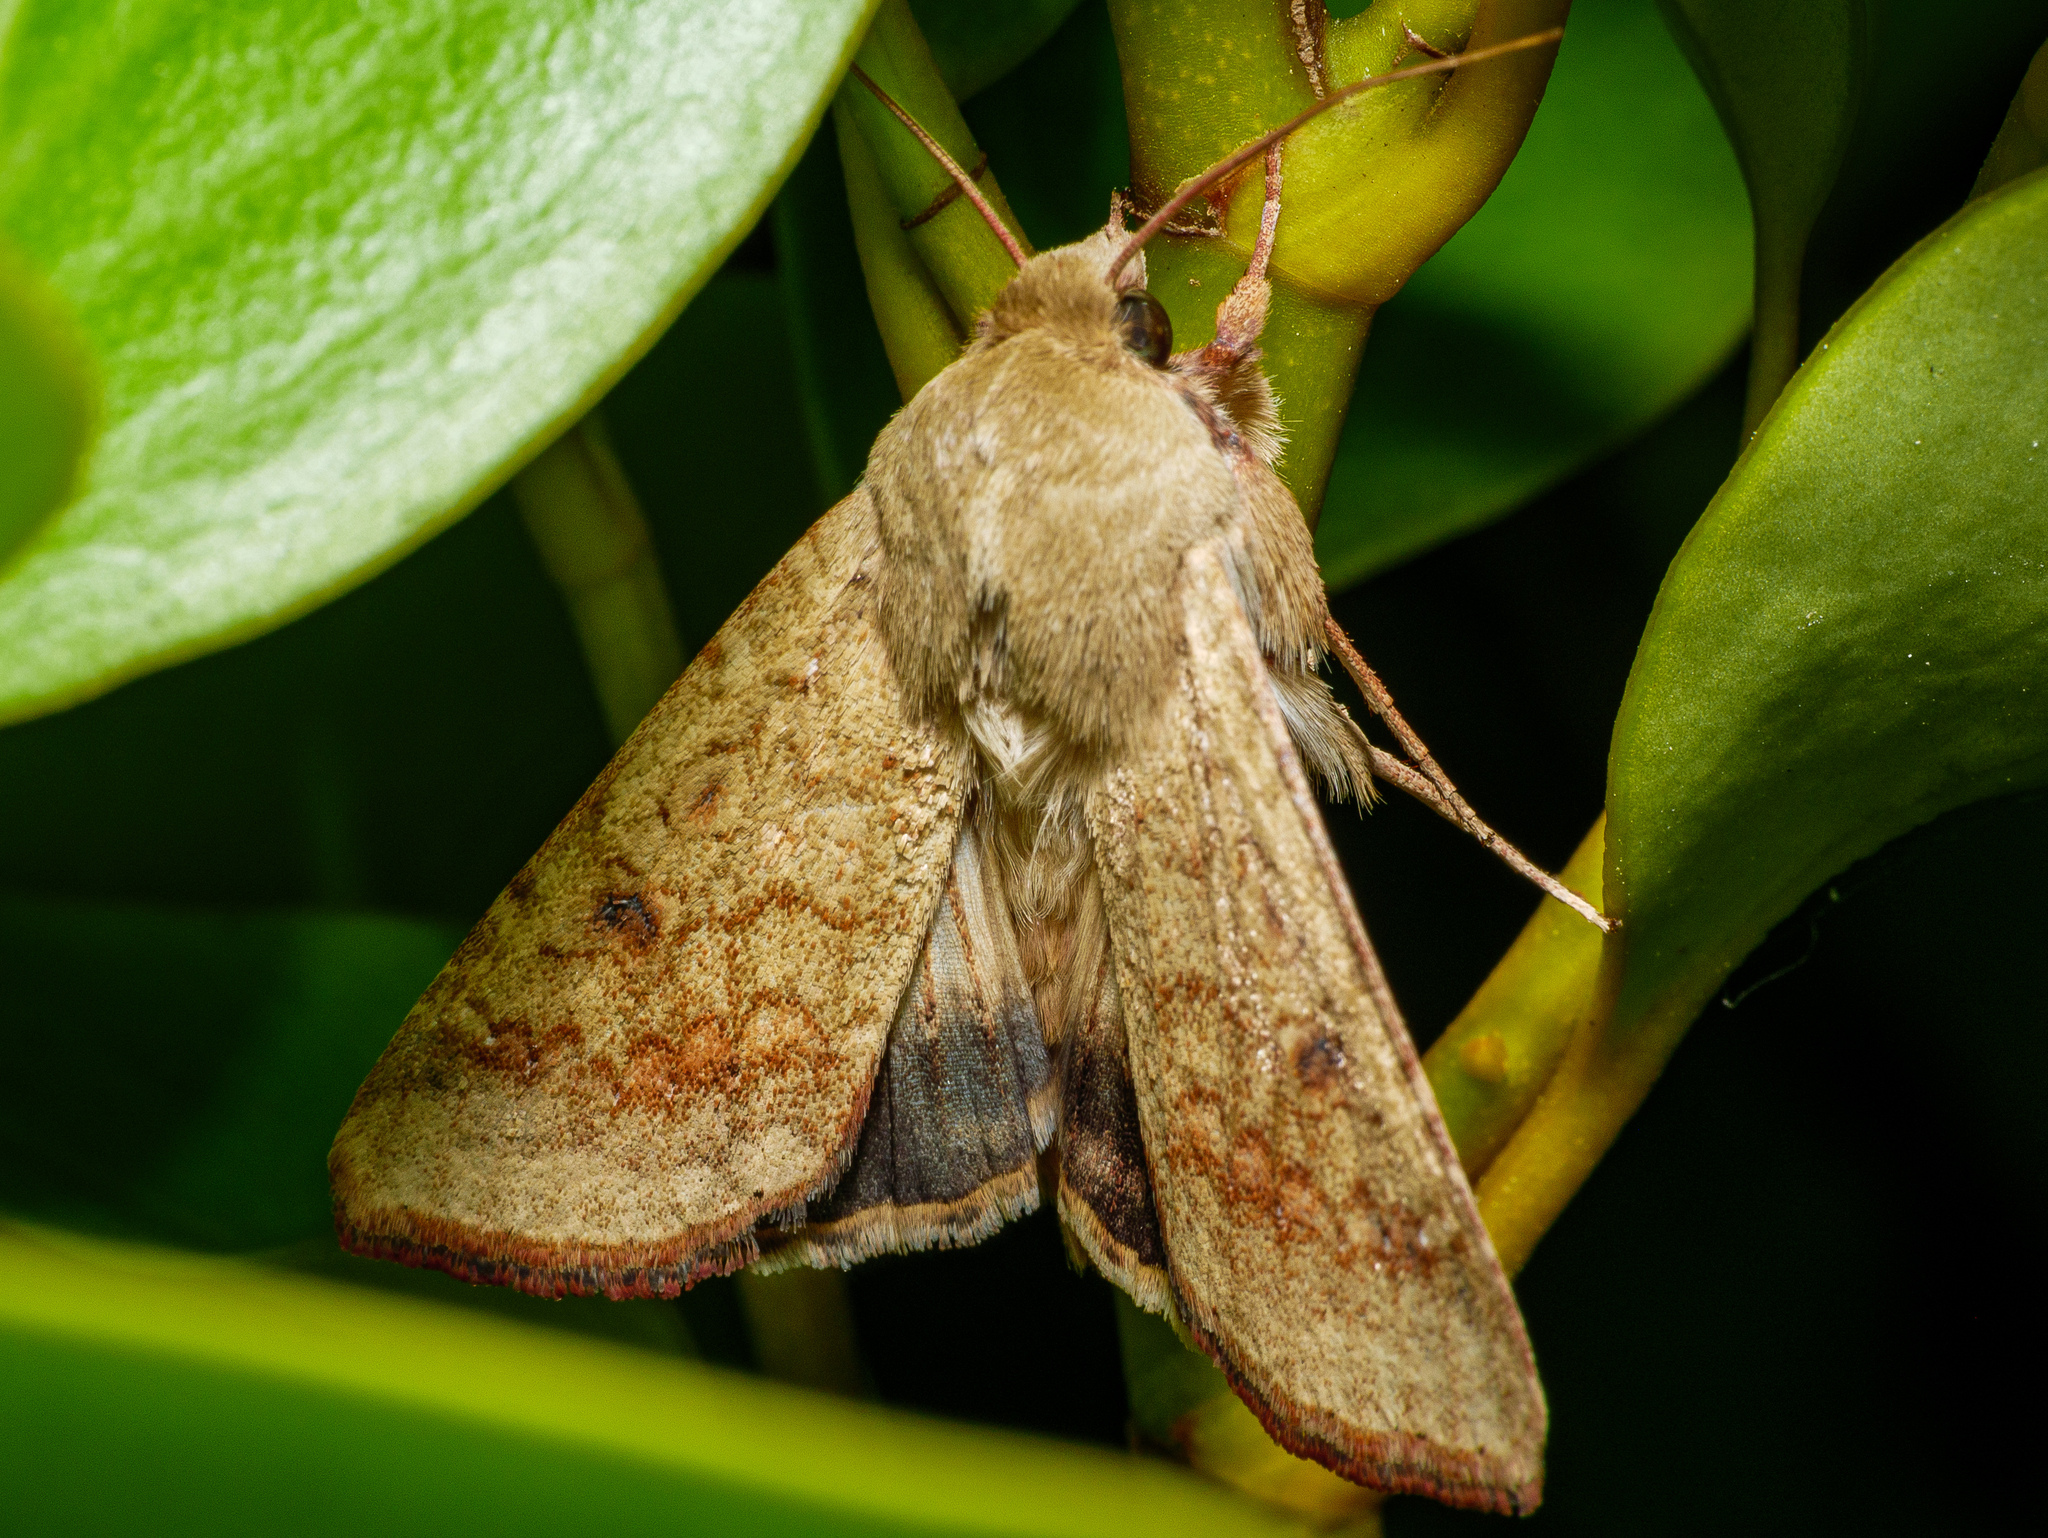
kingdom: Animalia
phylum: Arthropoda
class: Insecta
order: Lepidoptera
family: Noctuidae
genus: Helicoverpa
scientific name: Helicoverpa armigera
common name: Cotton bollworm
